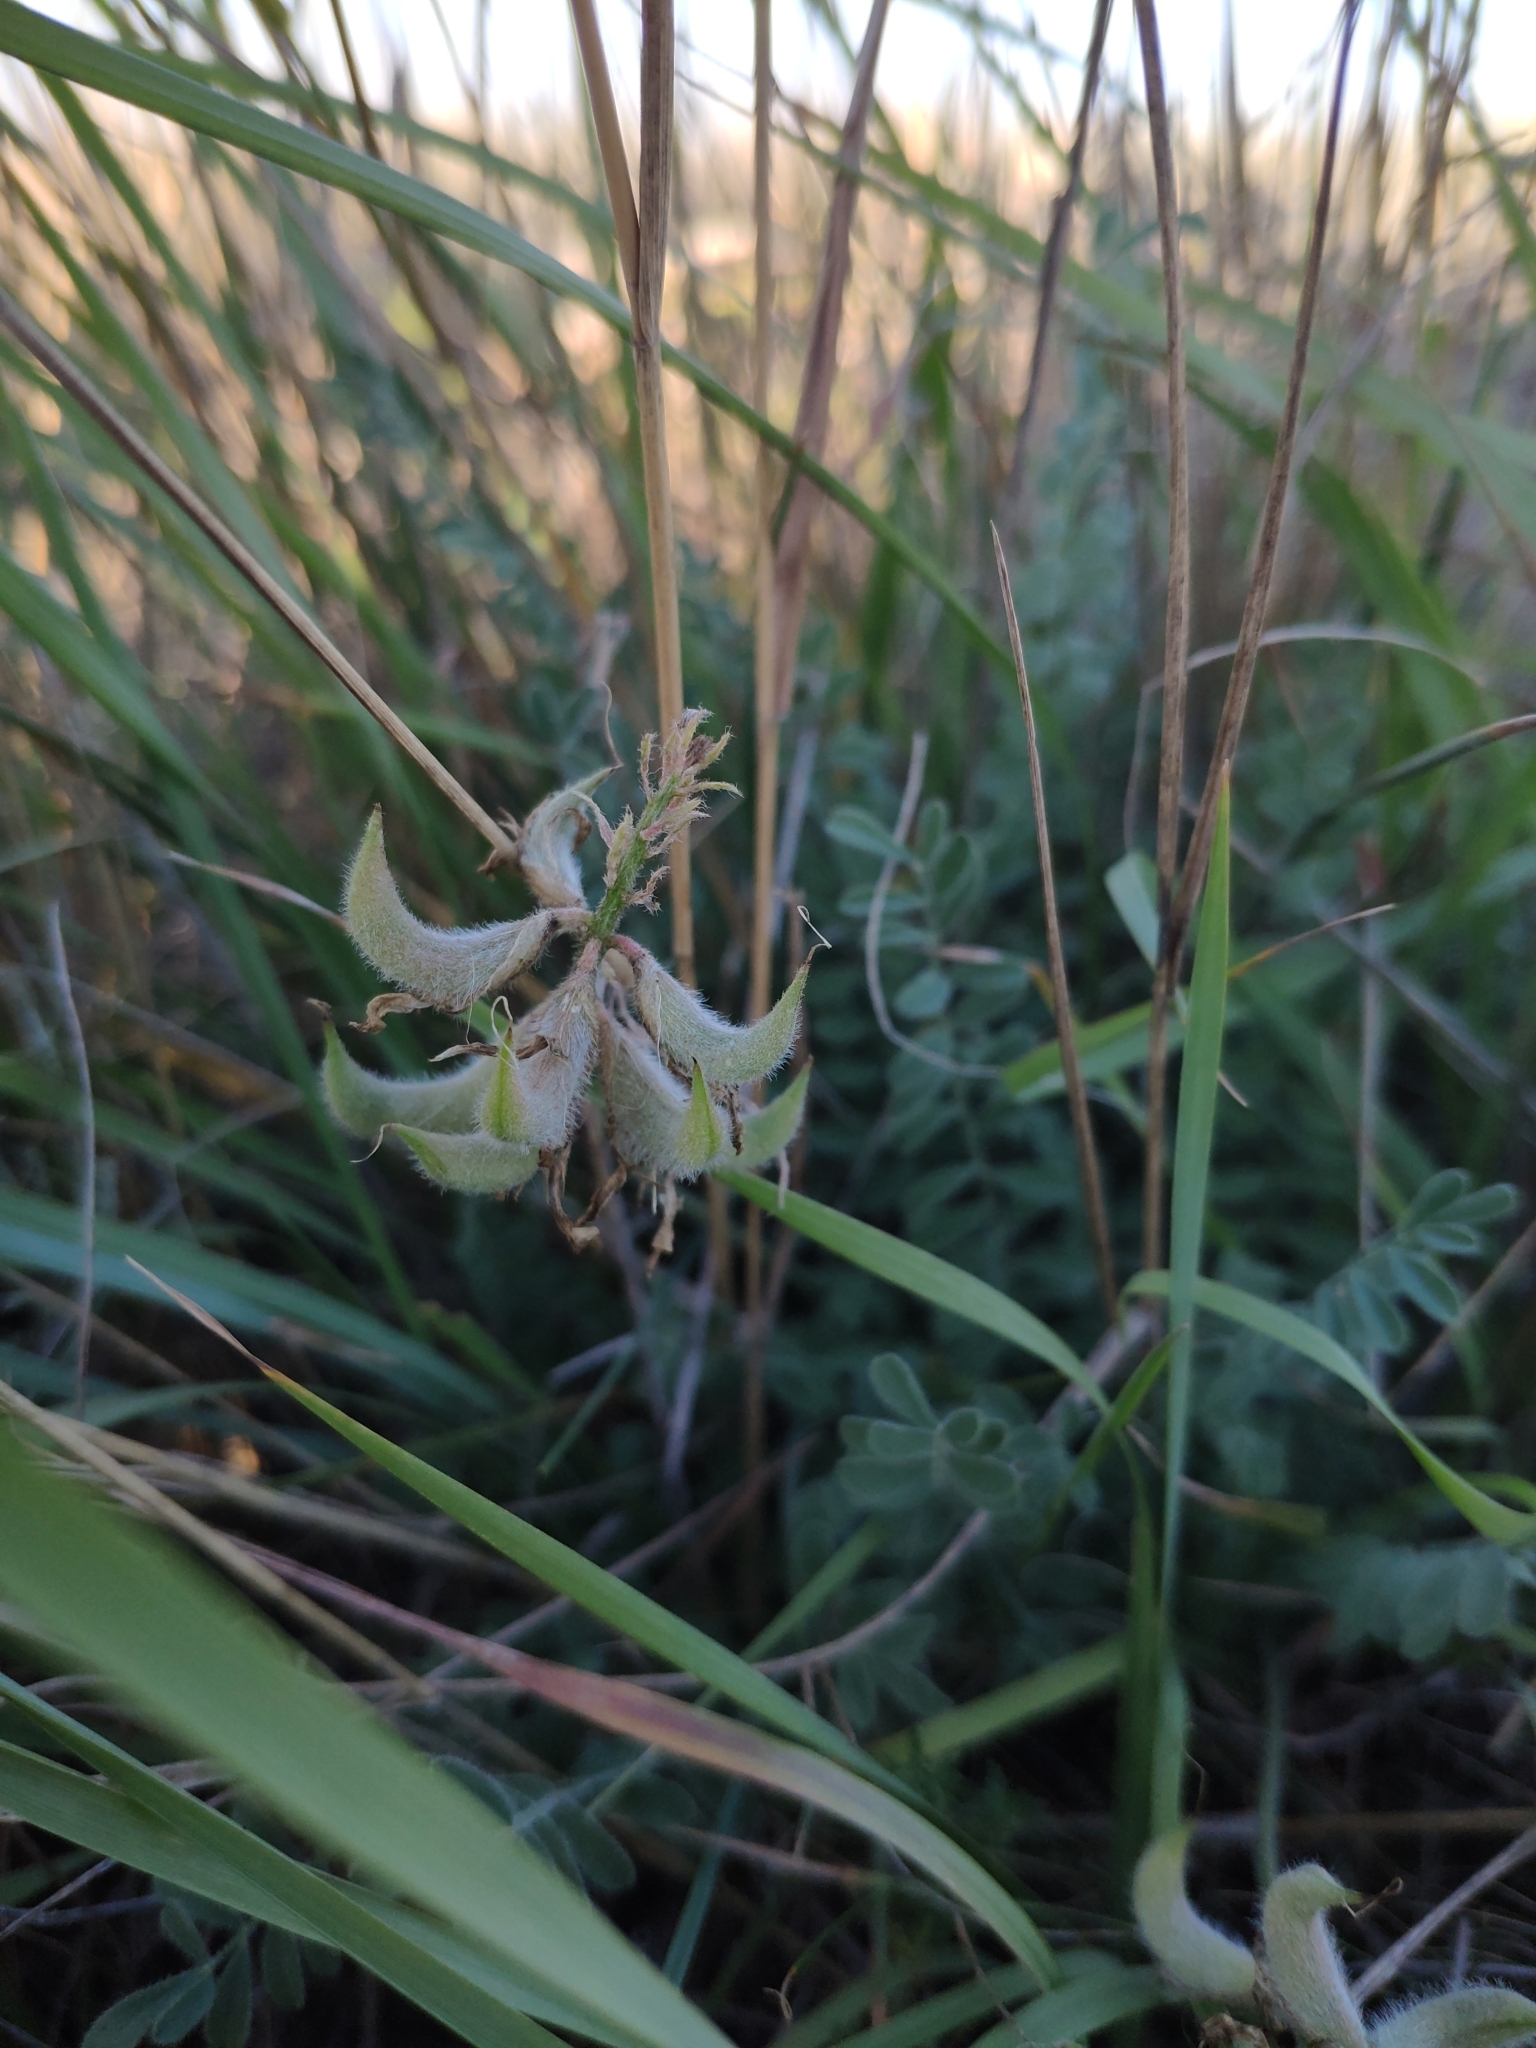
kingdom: Plantae
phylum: Tracheophyta
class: Magnoliopsida
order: Fabales
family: Fabaceae
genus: Astragalus
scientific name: Astragalus reduncus
